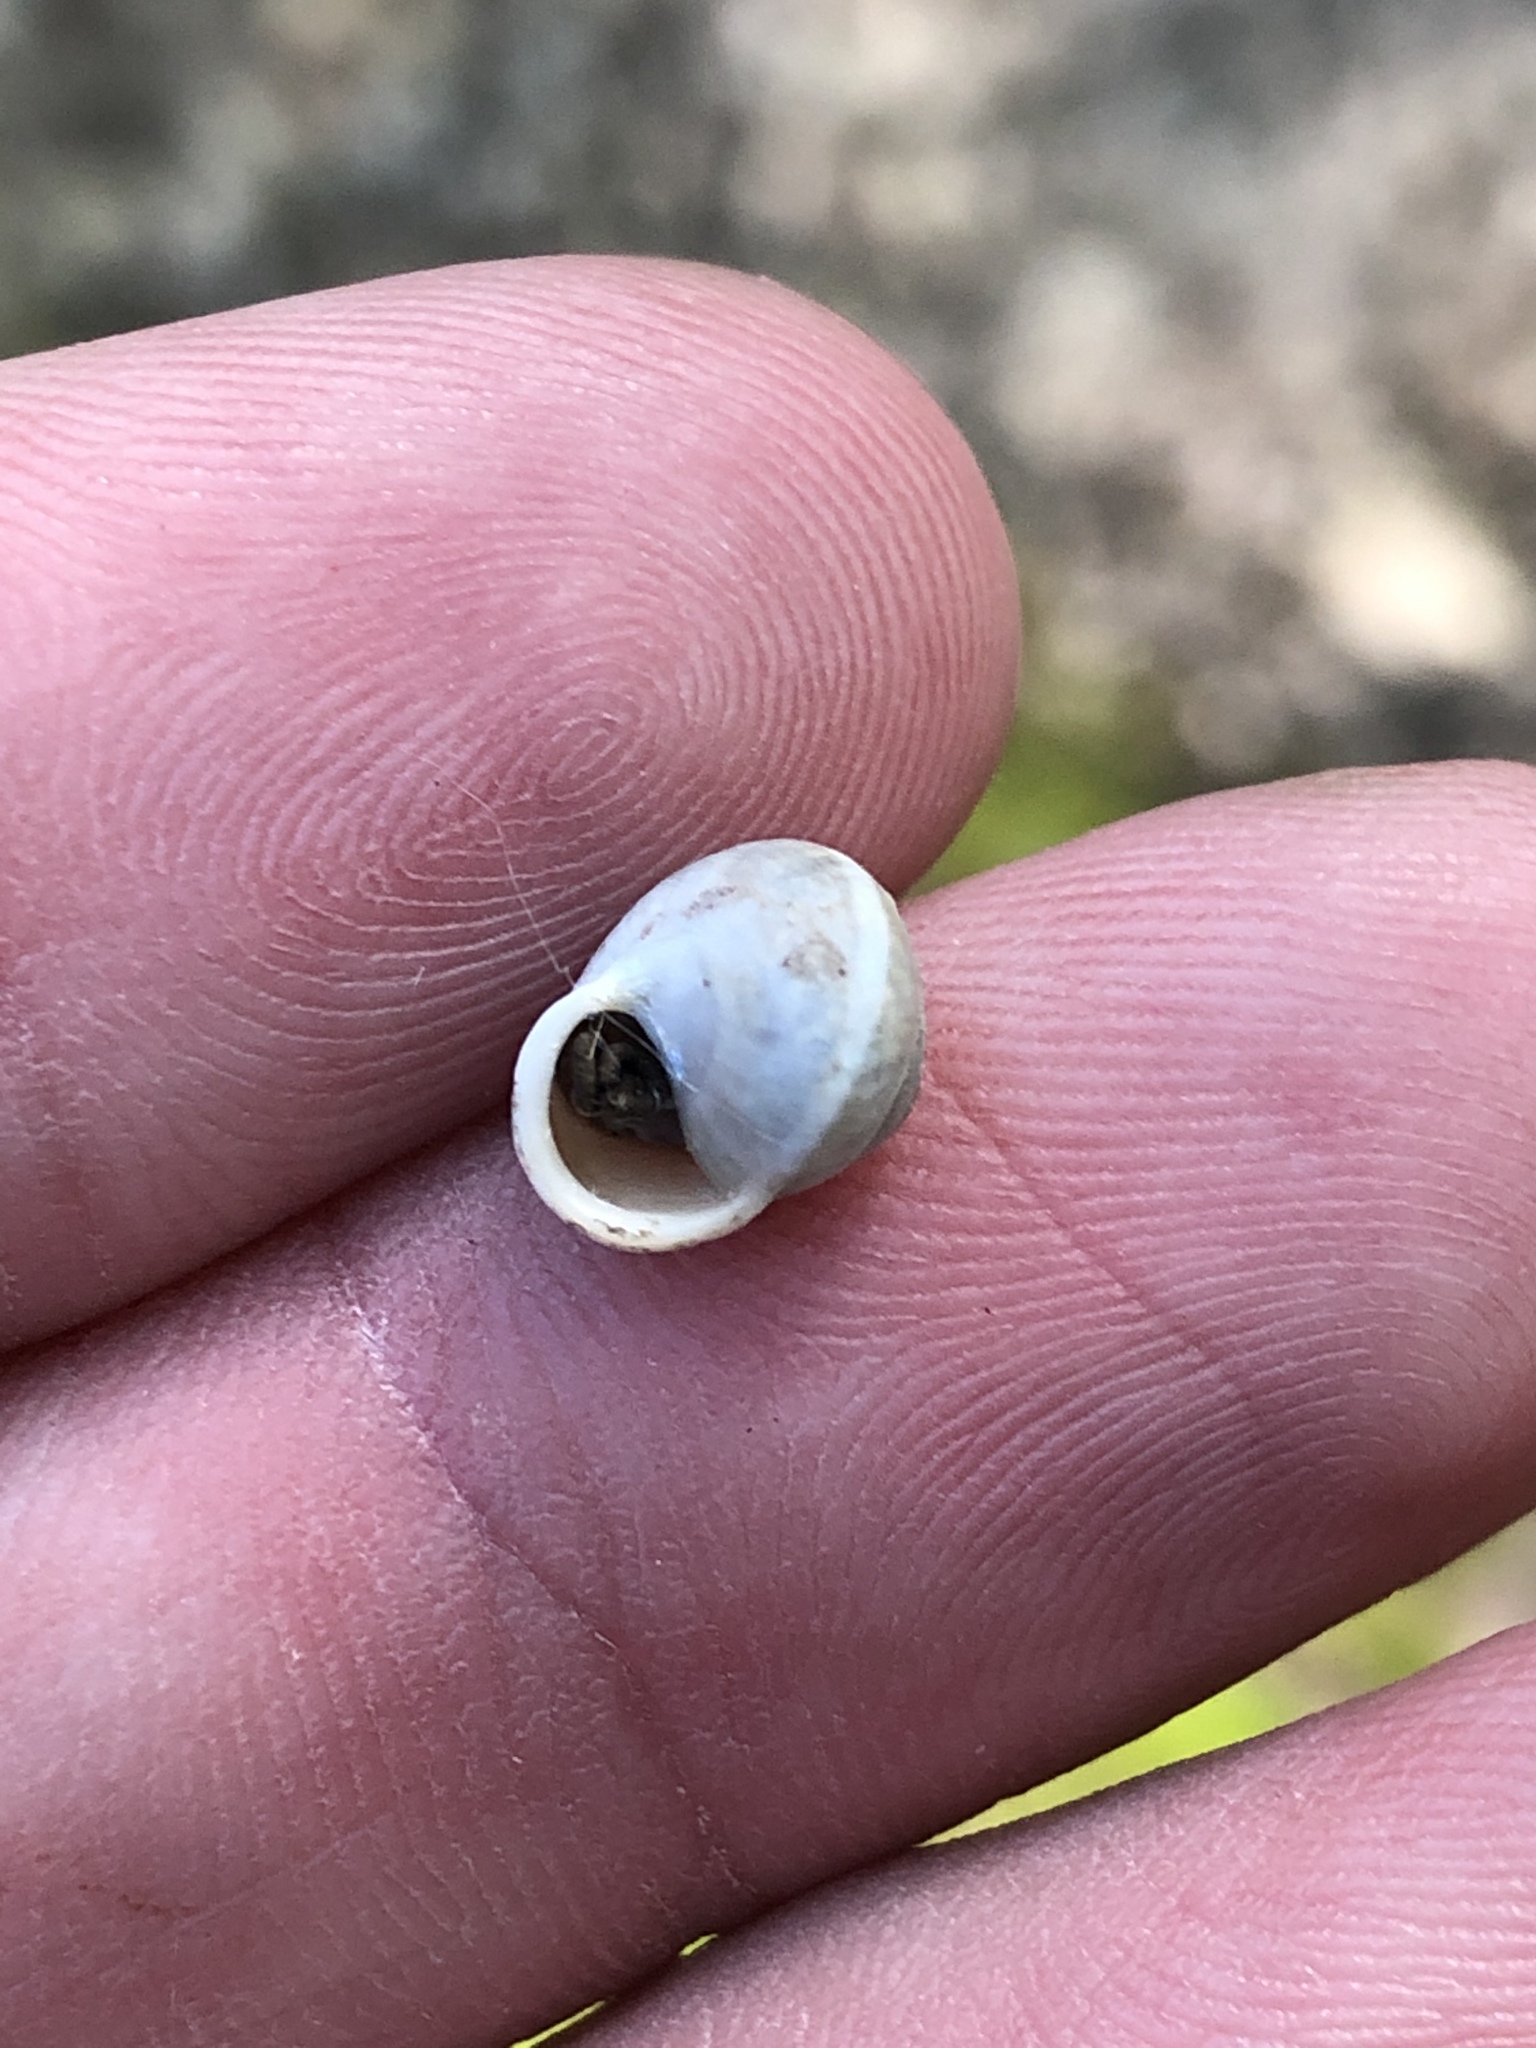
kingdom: Animalia
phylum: Mollusca
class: Gastropoda
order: Cycloneritida
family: Helicinidae
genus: Helicina
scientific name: Helicina orbiculata
